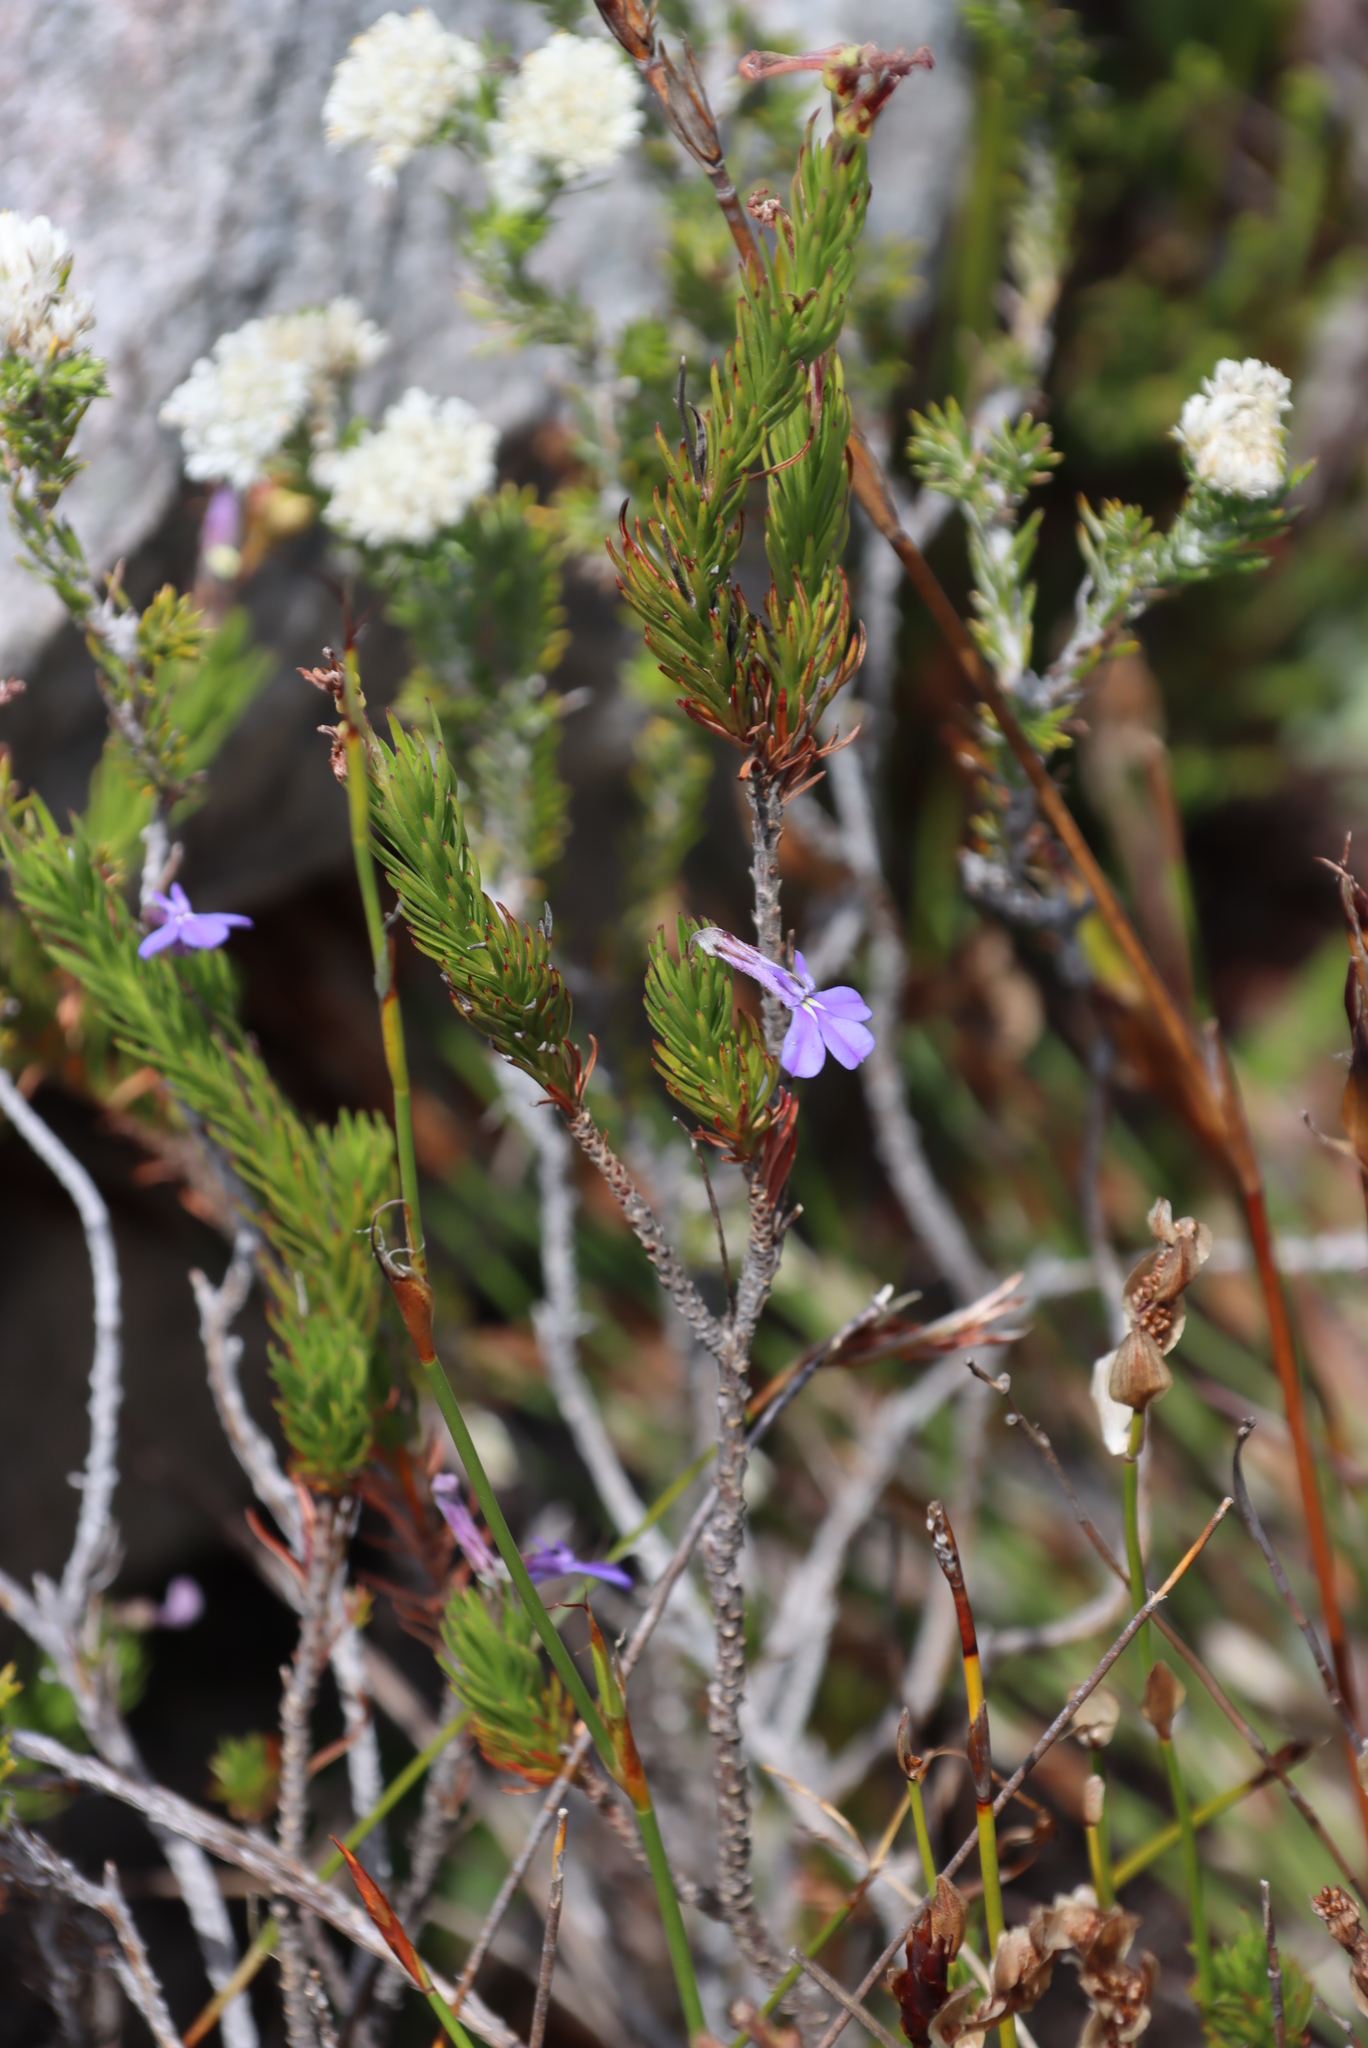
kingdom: Plantae
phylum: Tracheophyta
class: Magnoliopsida
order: Asterales
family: Campanulaceae
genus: Lobelia
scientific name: Lobelia pinifolia
